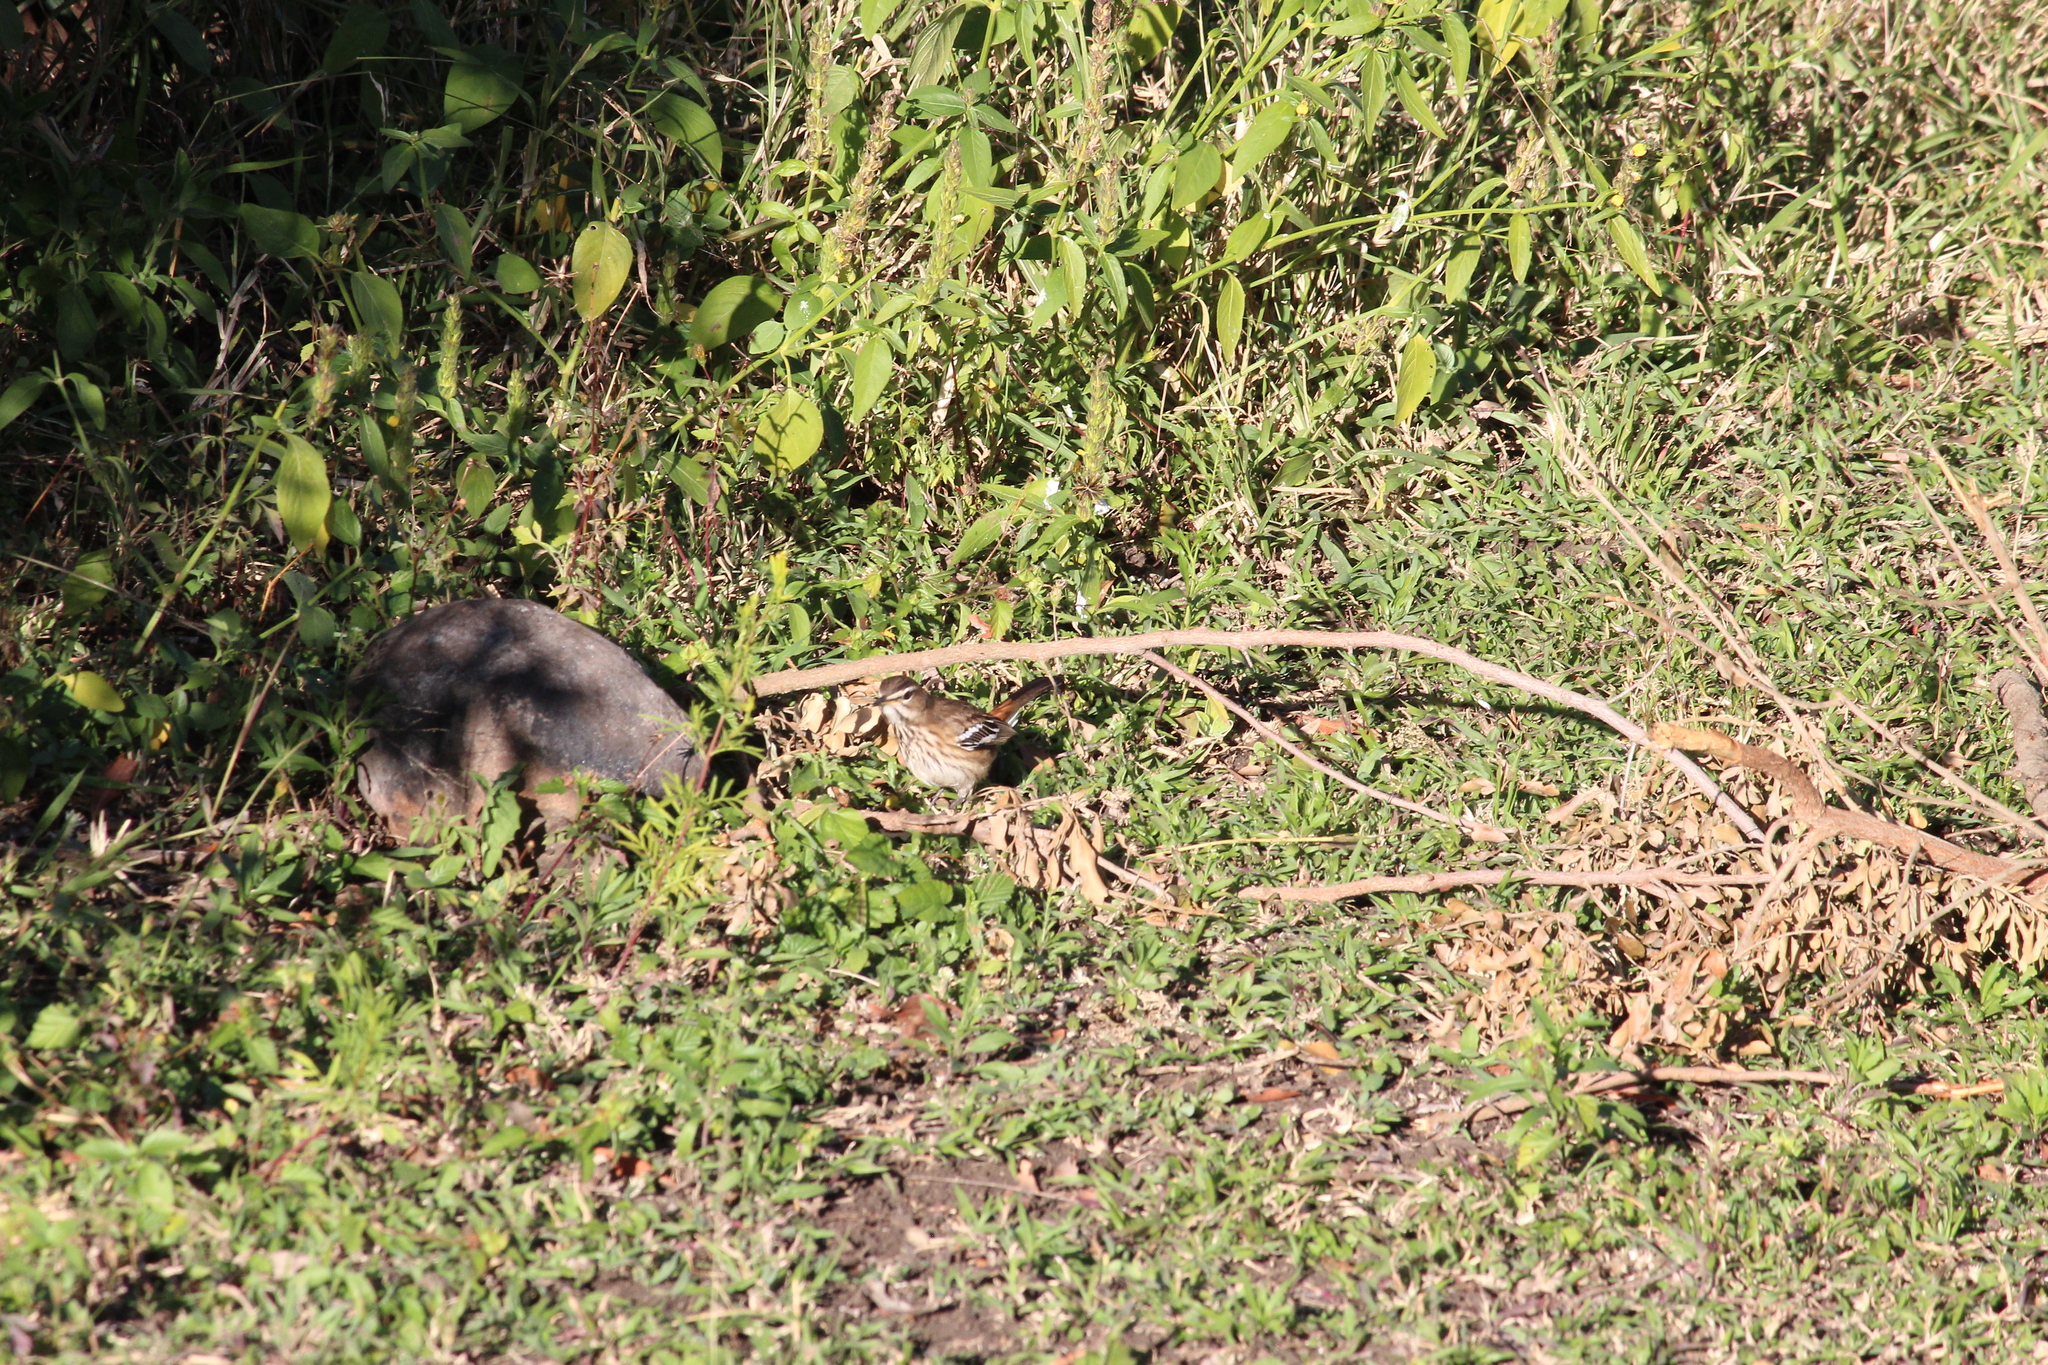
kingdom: Animalia
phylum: Chordata
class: Aves
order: Passeriformes
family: Muscicapidae
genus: Erythropygia
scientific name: Erythropygia leucophrys
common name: White-browed scrub robin
